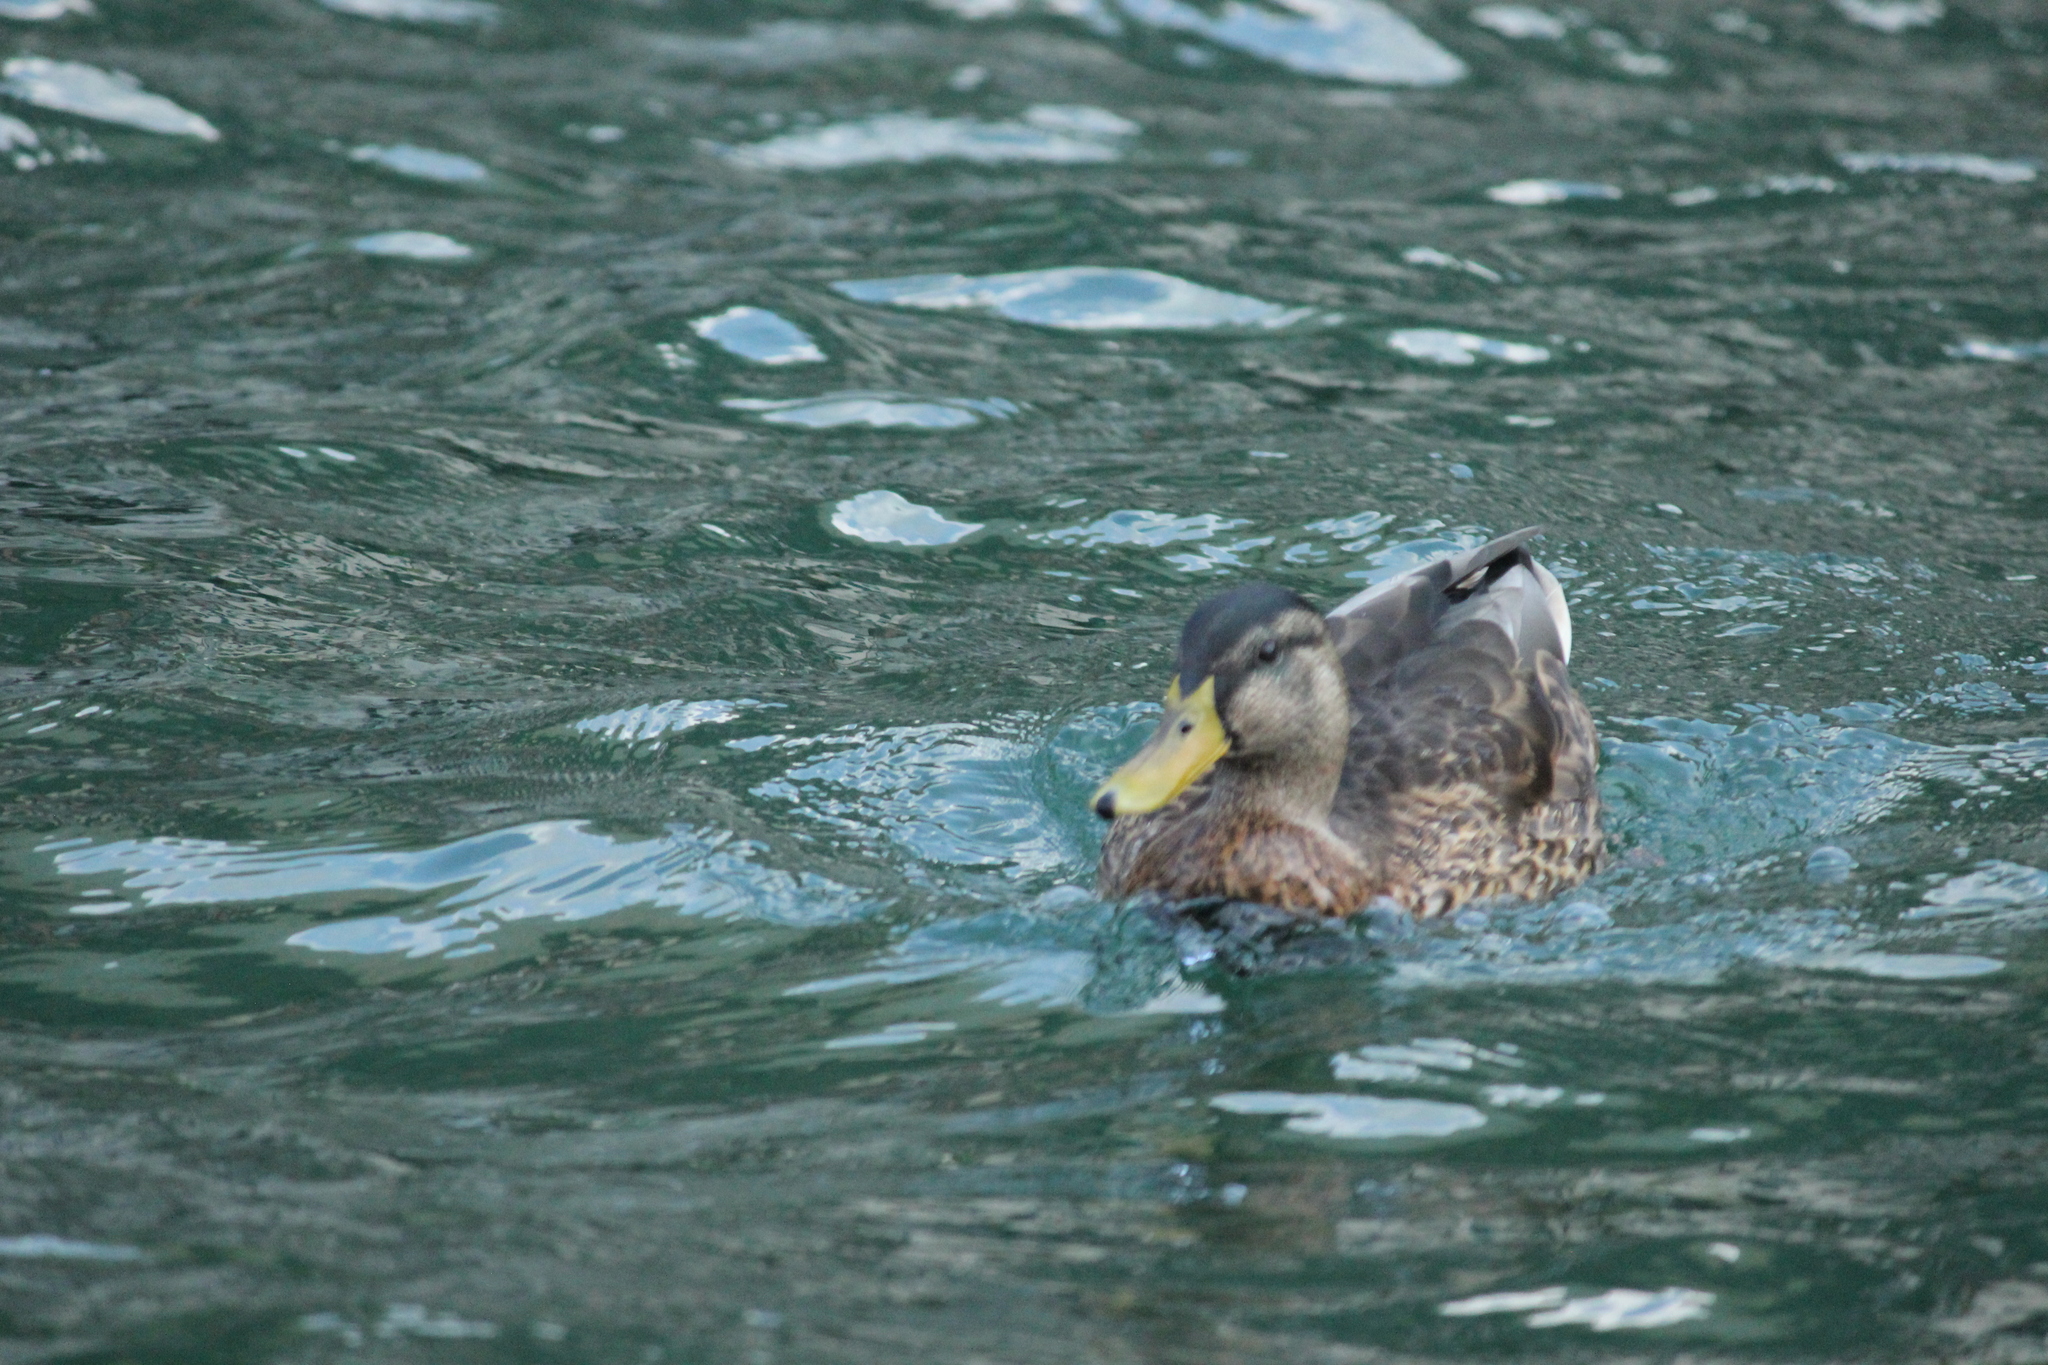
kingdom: Animalia
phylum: Chordata
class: Aves
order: Anseriformes
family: Anatidae
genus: Anas
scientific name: Anas platyrhynchos
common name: Mallard
